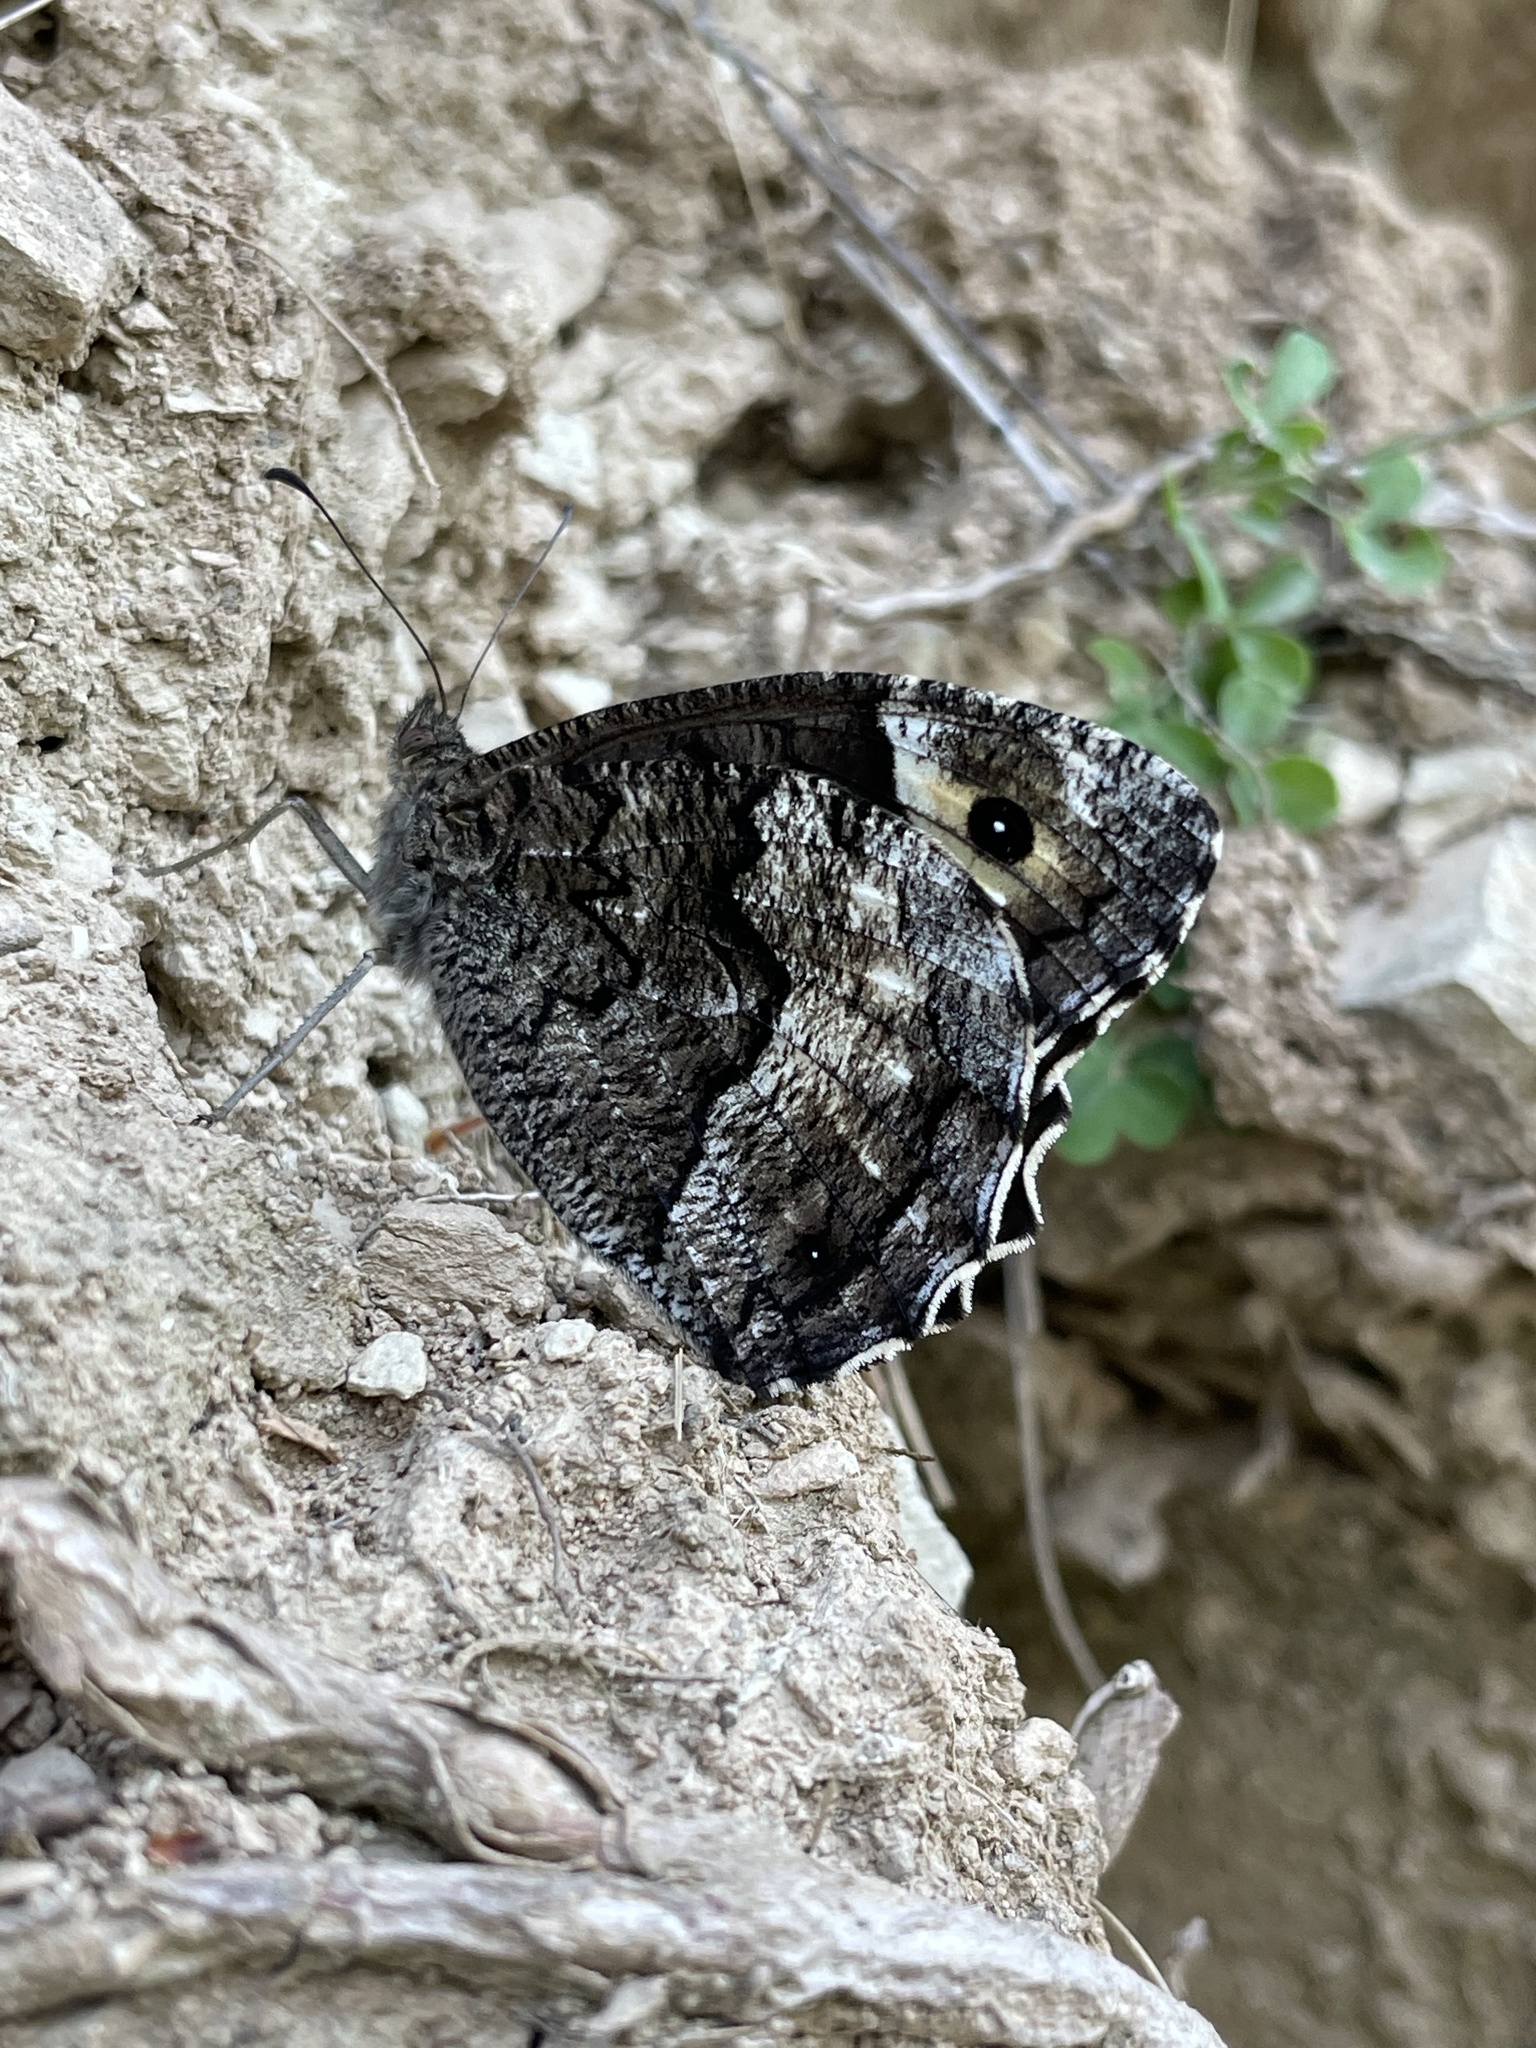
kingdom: Animalia
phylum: Arthropoda
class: Insecta
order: Lepidoptera
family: Nymphalidae
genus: Hipparchia
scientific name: Hipparchia fagi
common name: Woodland grayling
